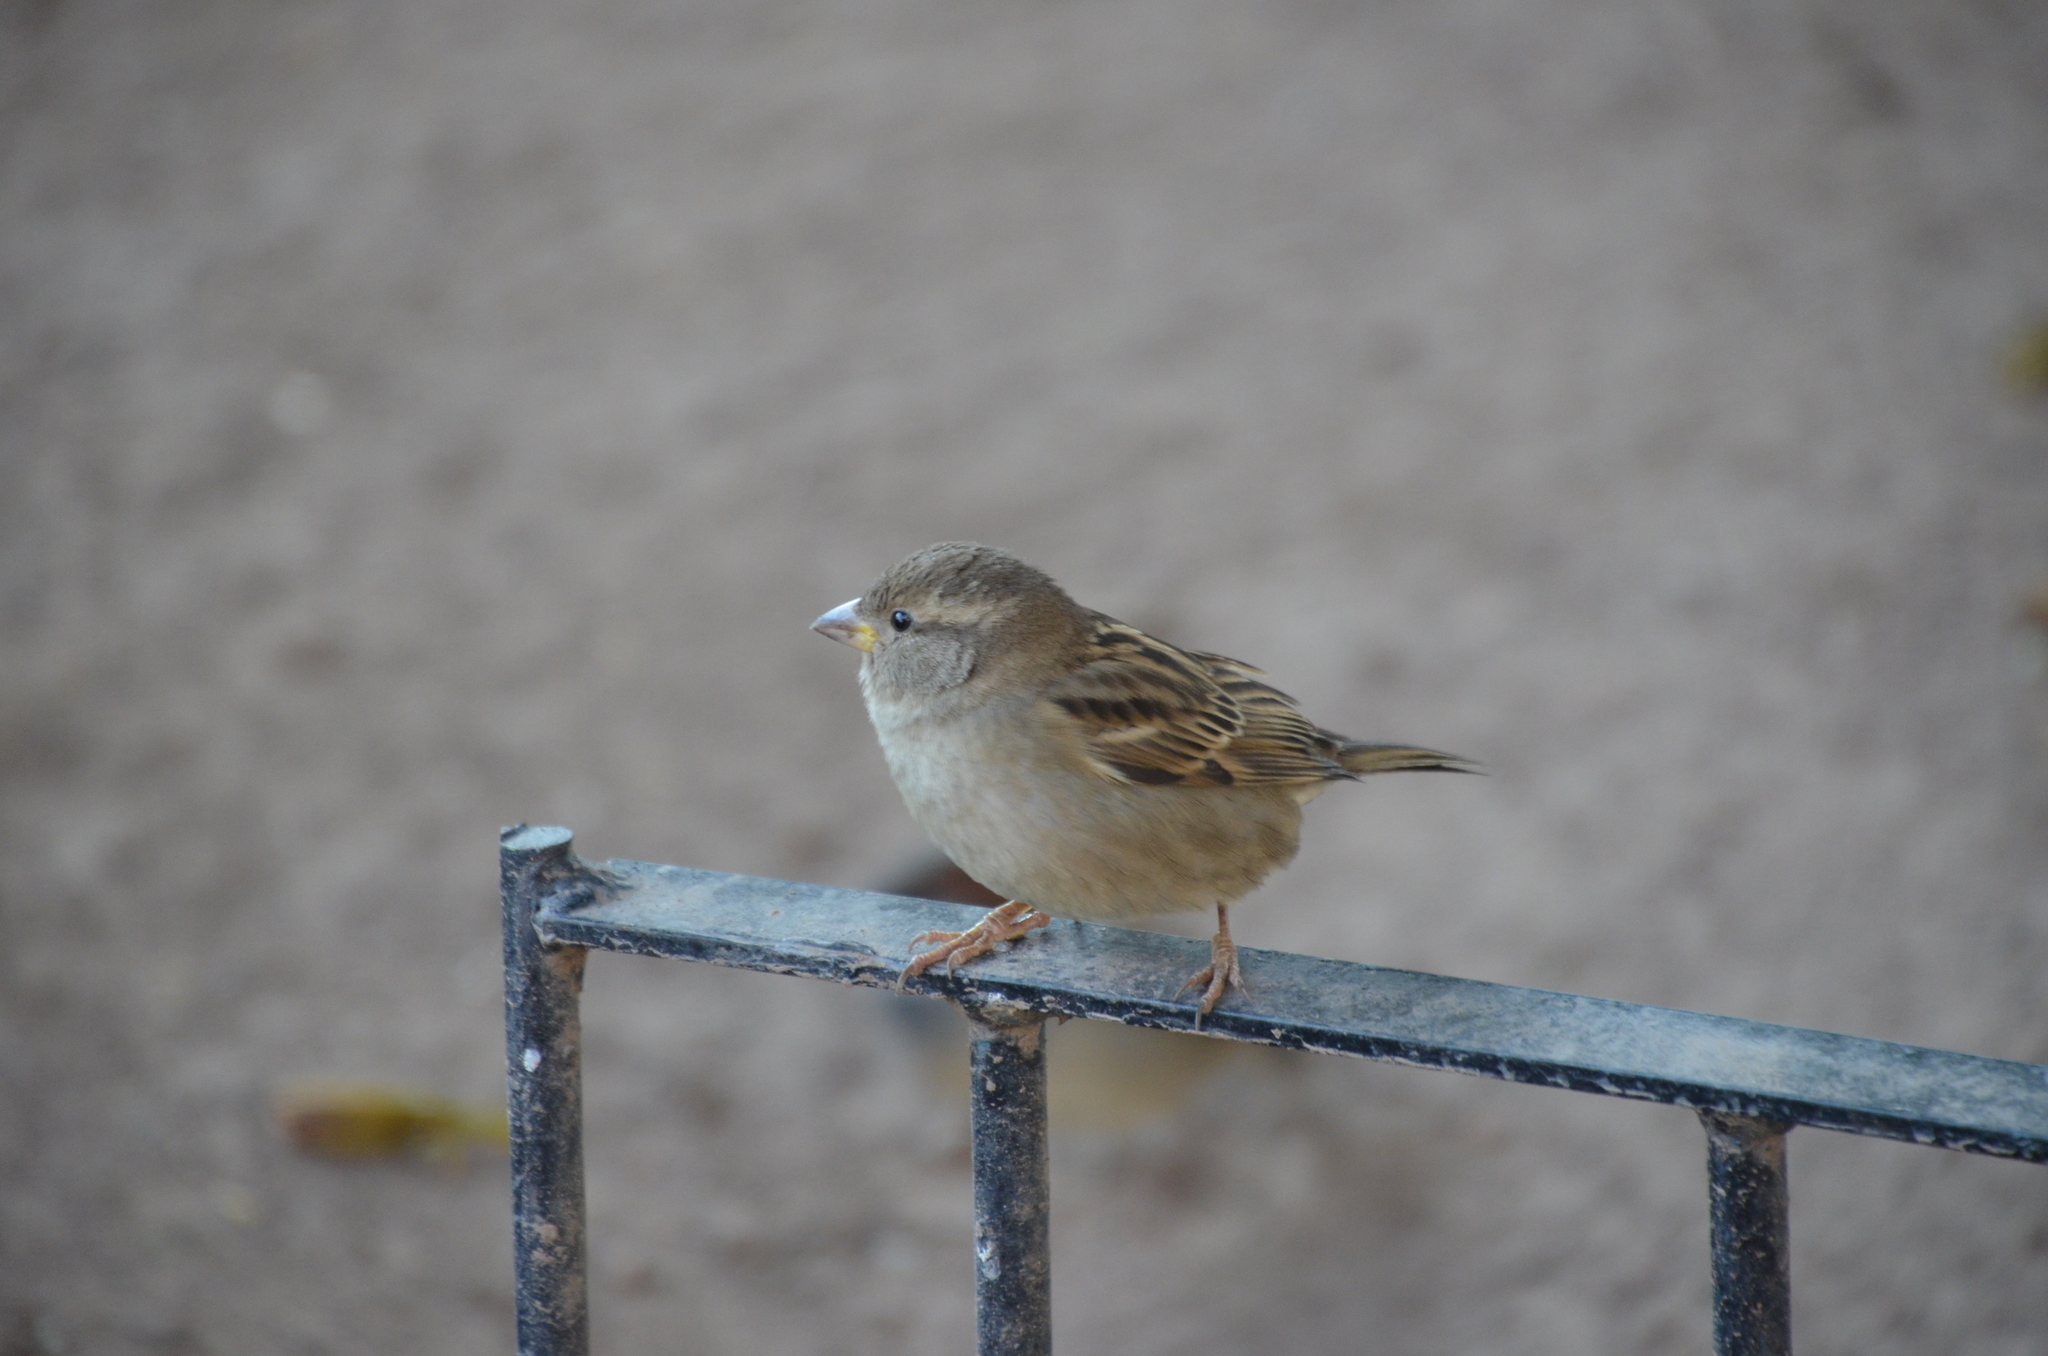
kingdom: Animalia
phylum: Chordata
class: Aves
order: Passeriformes
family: Passeridae
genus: Passer
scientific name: Passer domesticus
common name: House sparrow
